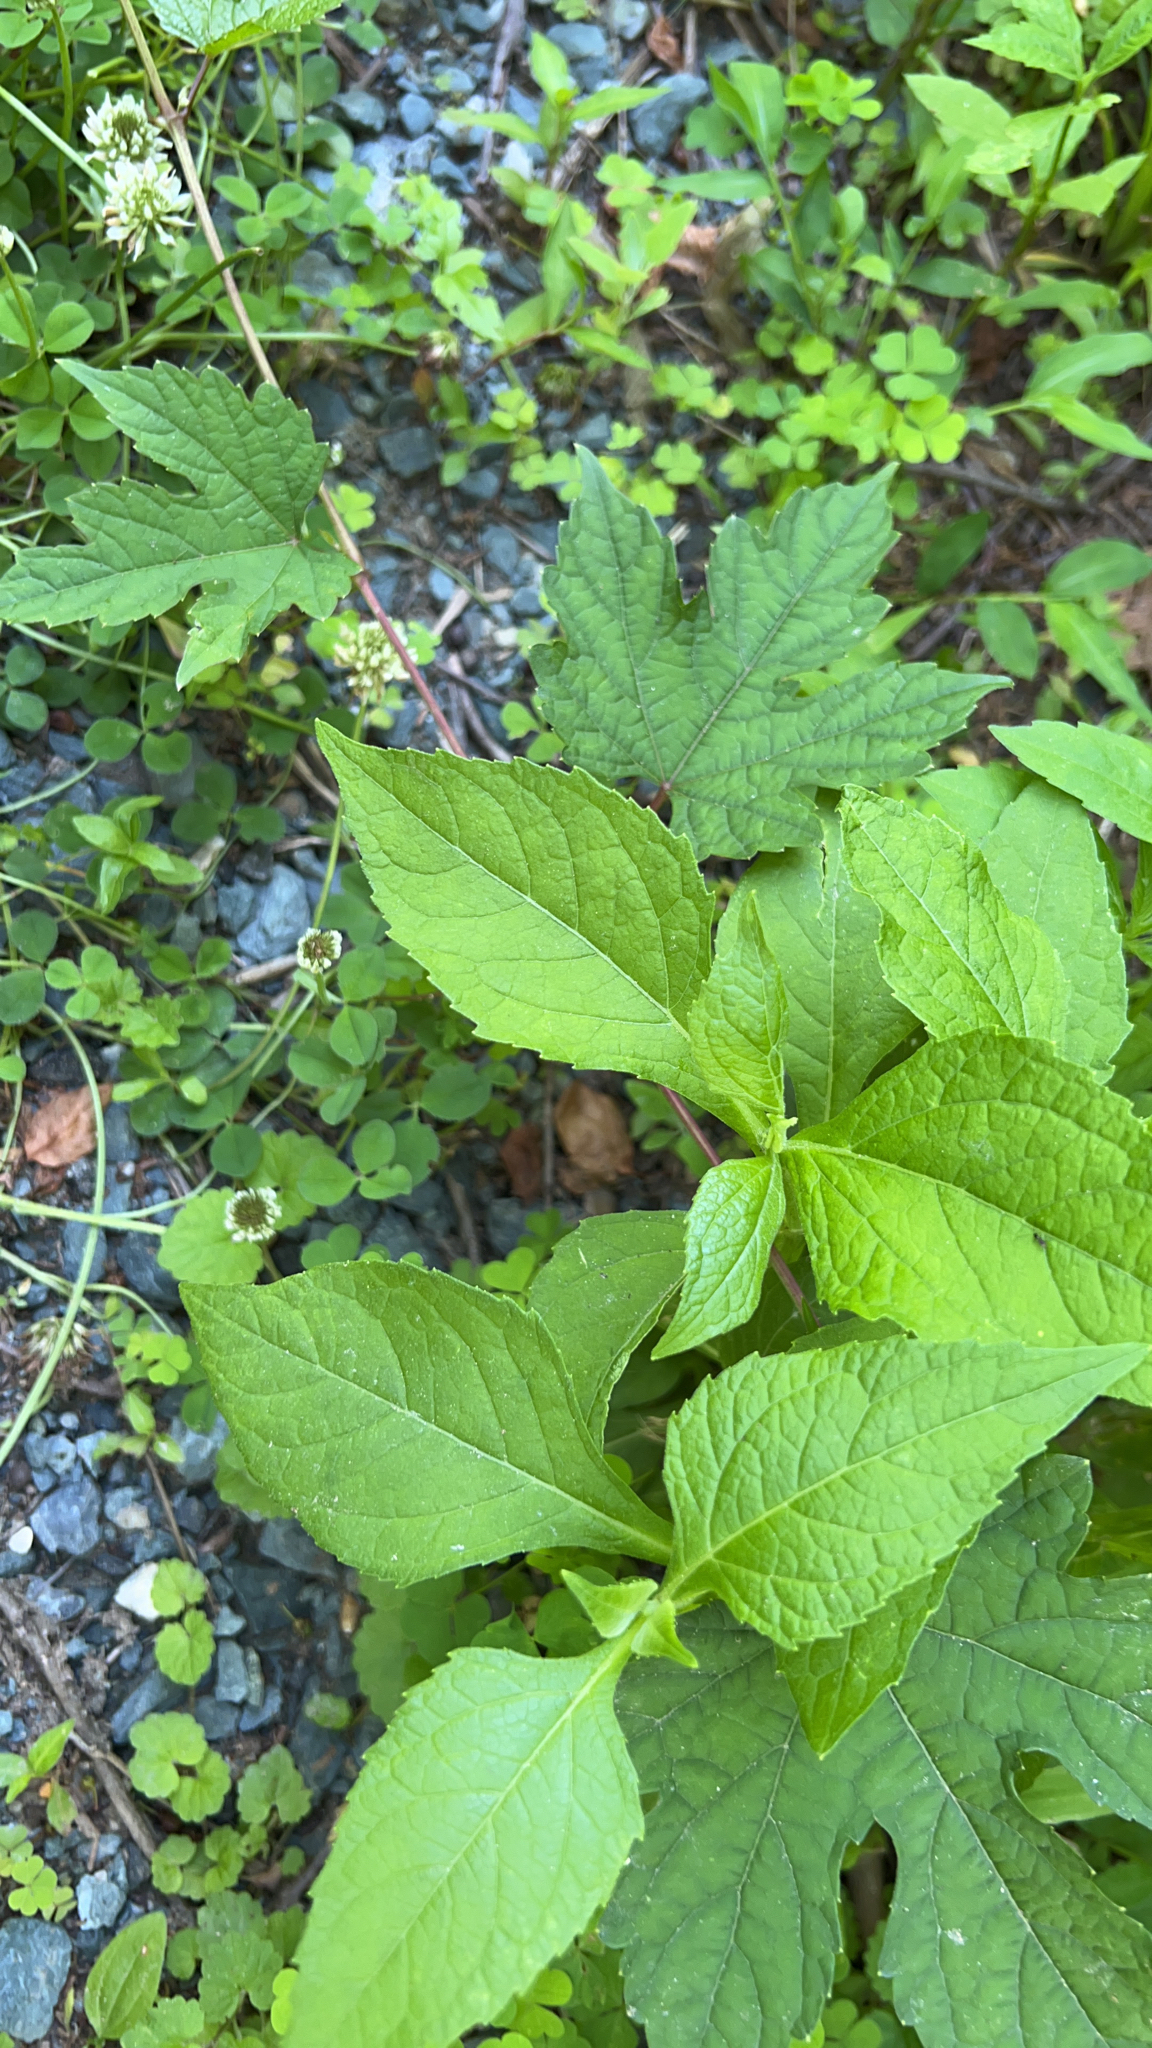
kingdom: Plantae
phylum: Tracheophyta
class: Magnoliopsida
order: Asterales
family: Asteraceae
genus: Verbesina
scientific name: Verbesina occidentalis
